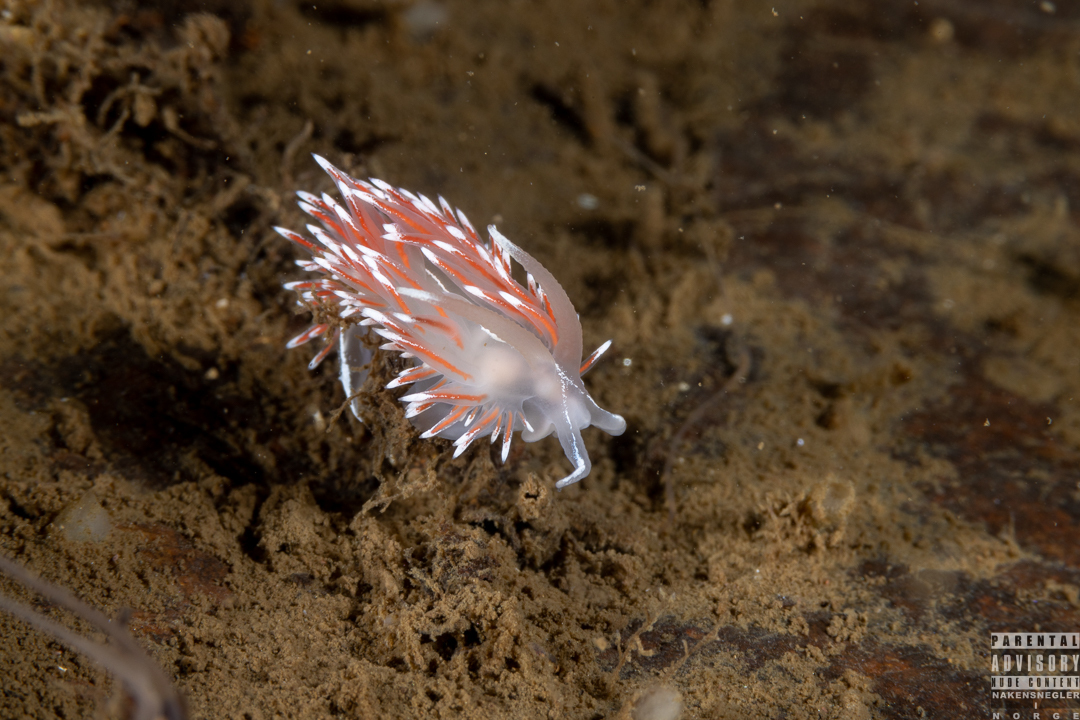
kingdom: Animalia
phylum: Mollusca
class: Gastropoda
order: Nudibranchia
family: Coryphellidae
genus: Coryphella
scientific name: Coryphella lineata
